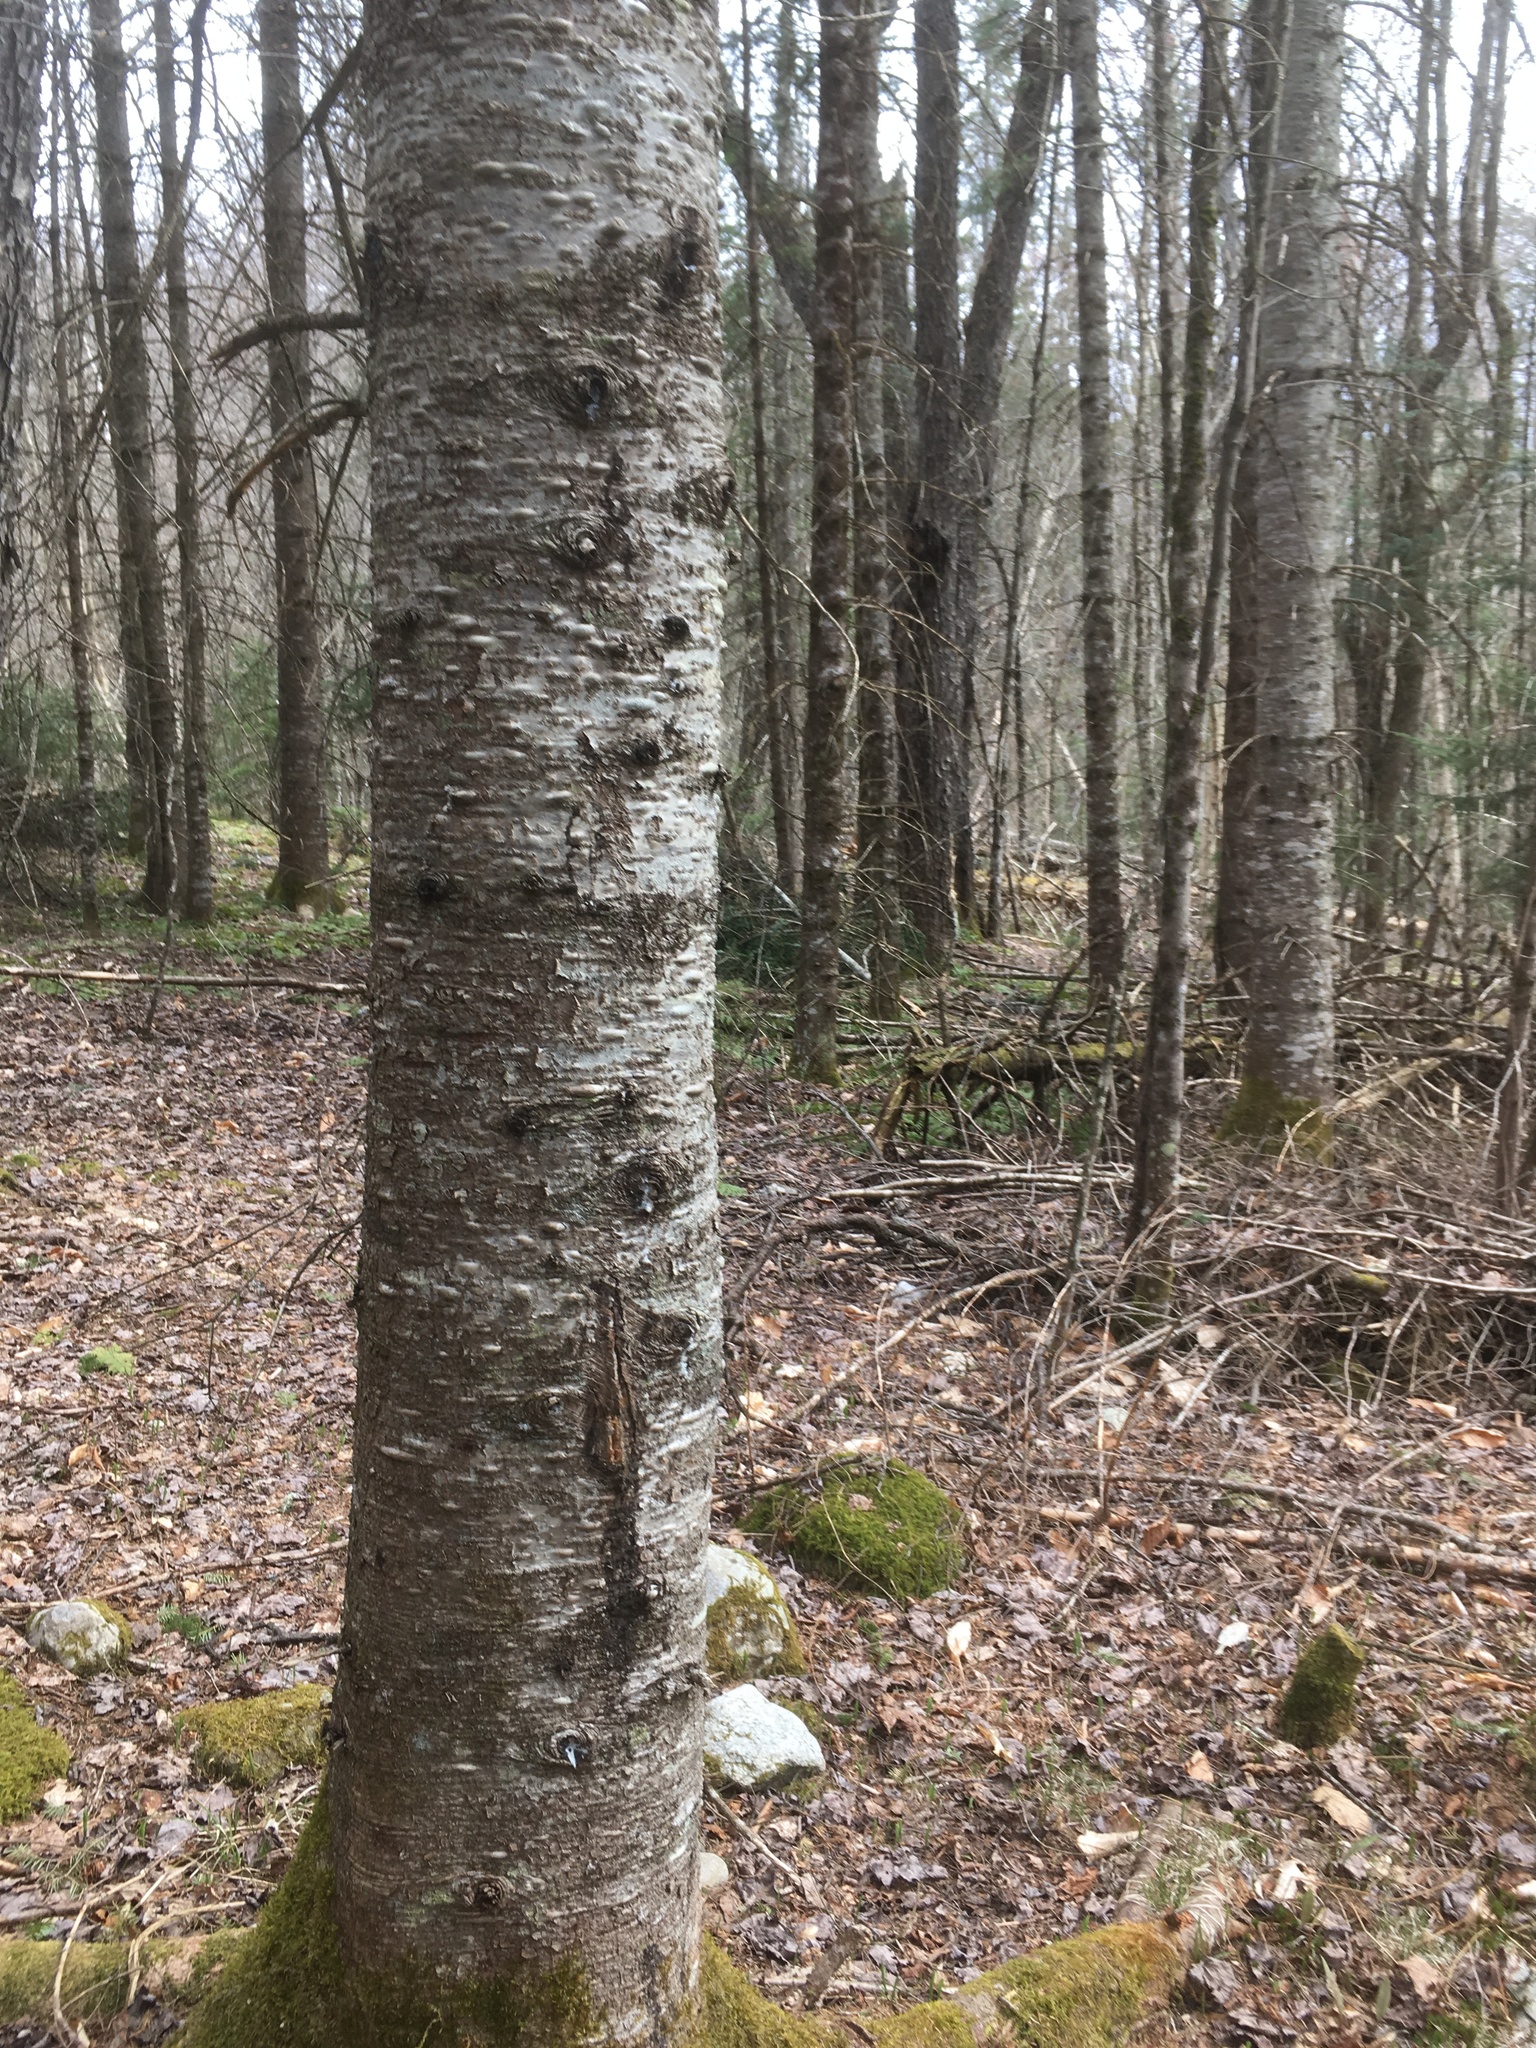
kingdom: Plantae
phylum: Tracheophyta
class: Pinopsida
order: Pinales
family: Pinaceae
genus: Abies
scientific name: Abies balsamea
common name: Balsam fir
